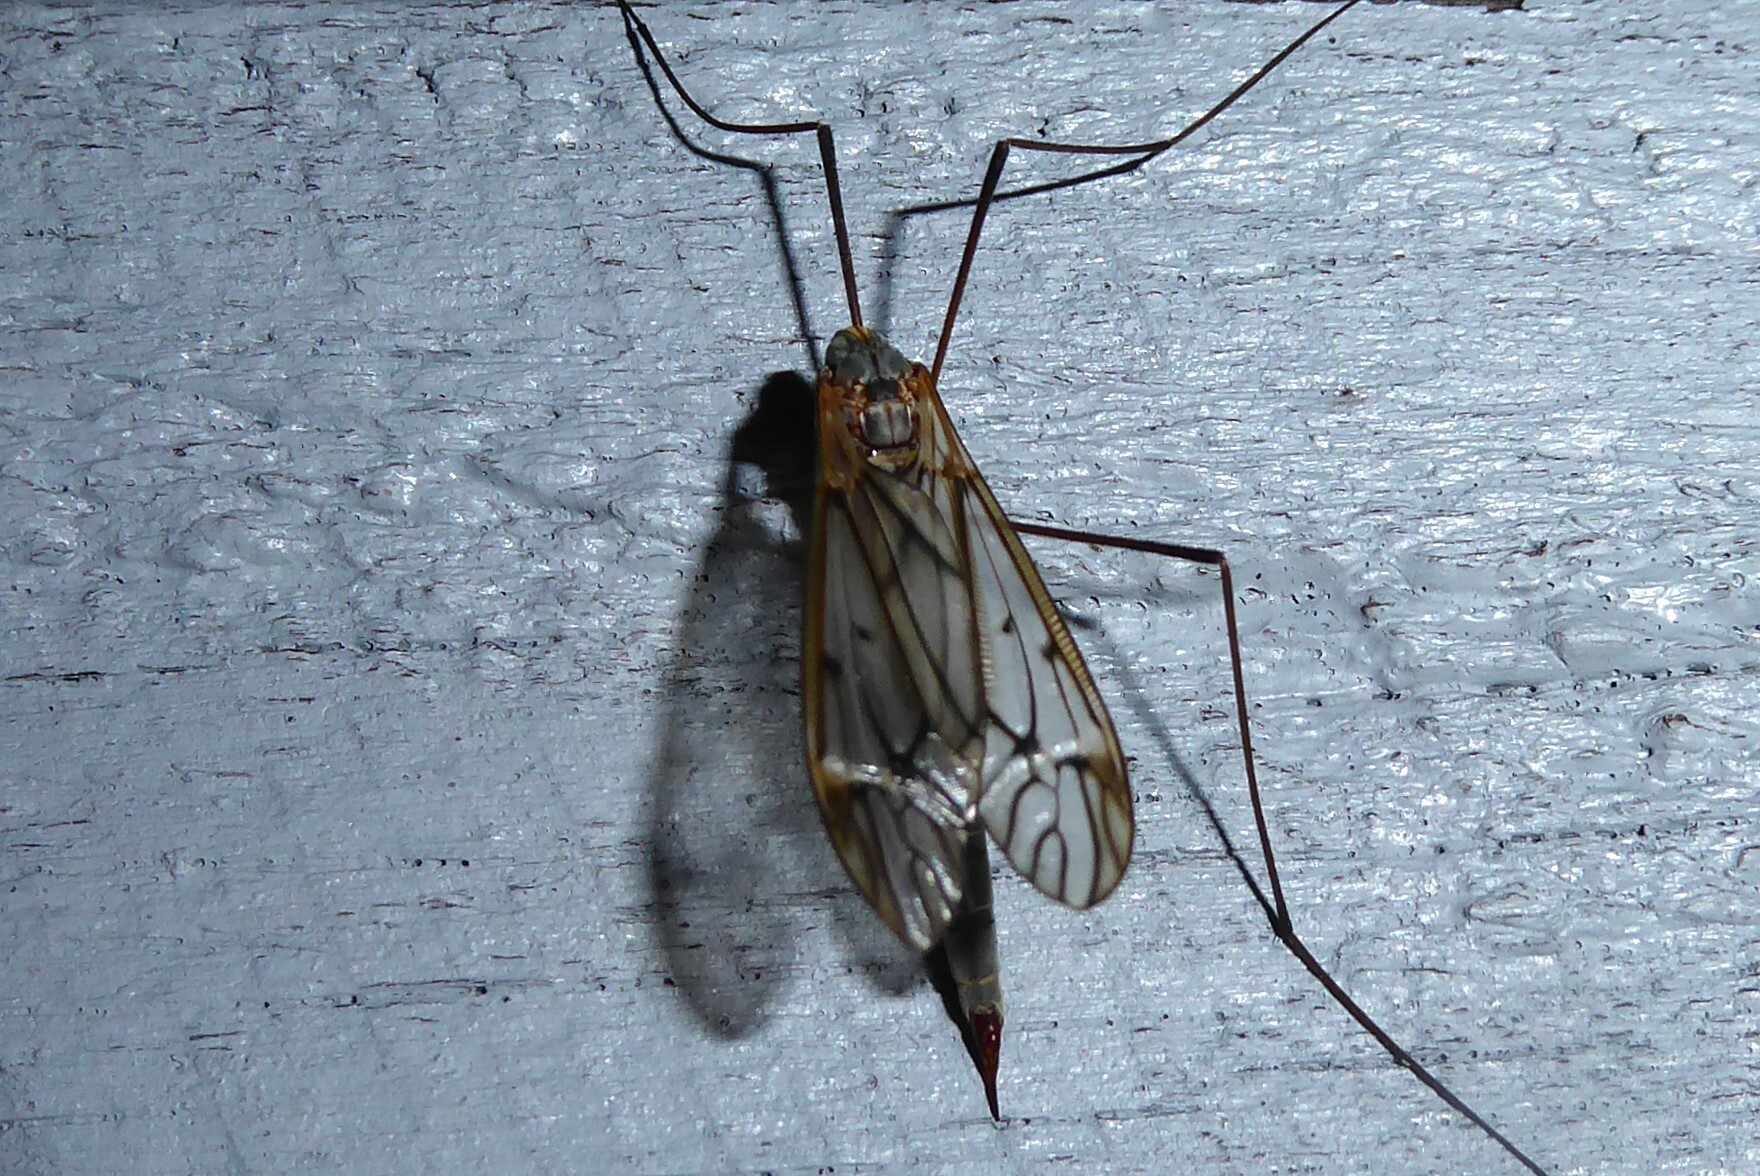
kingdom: Animalia
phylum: Arthropoda
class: Insecta
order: Diptera
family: Tipulidae
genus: Zelandotipula
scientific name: Zelandotipula novarae
